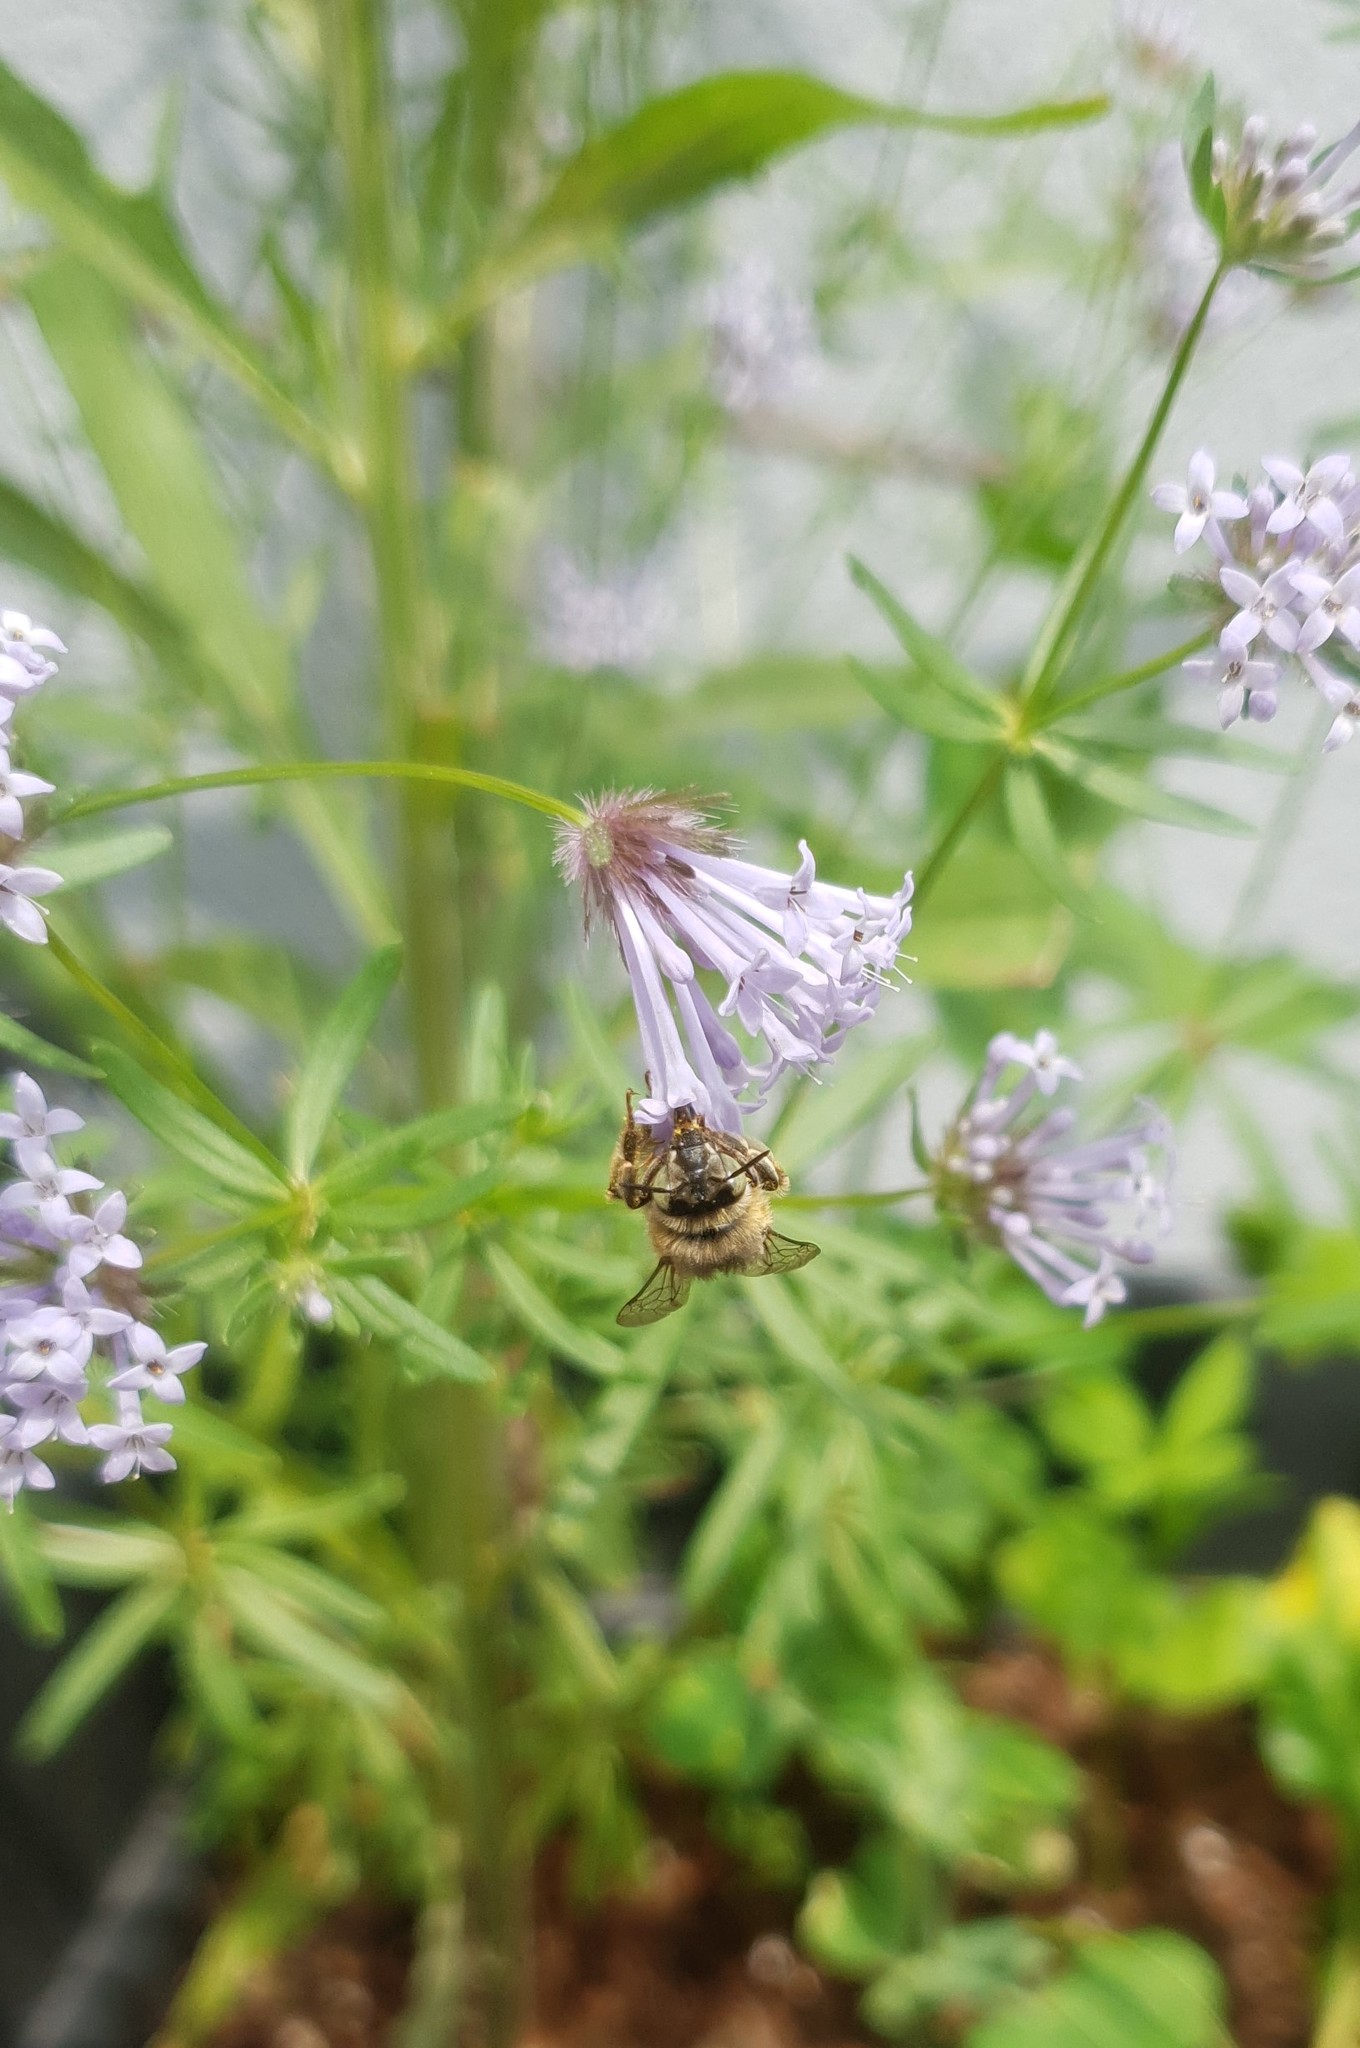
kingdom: Animalia
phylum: Arthropoda
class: Insecta
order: Hymenoptera
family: Apidae
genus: Anthophora
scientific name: Anthophora quadrimaculata
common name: Four-banded flower bee
